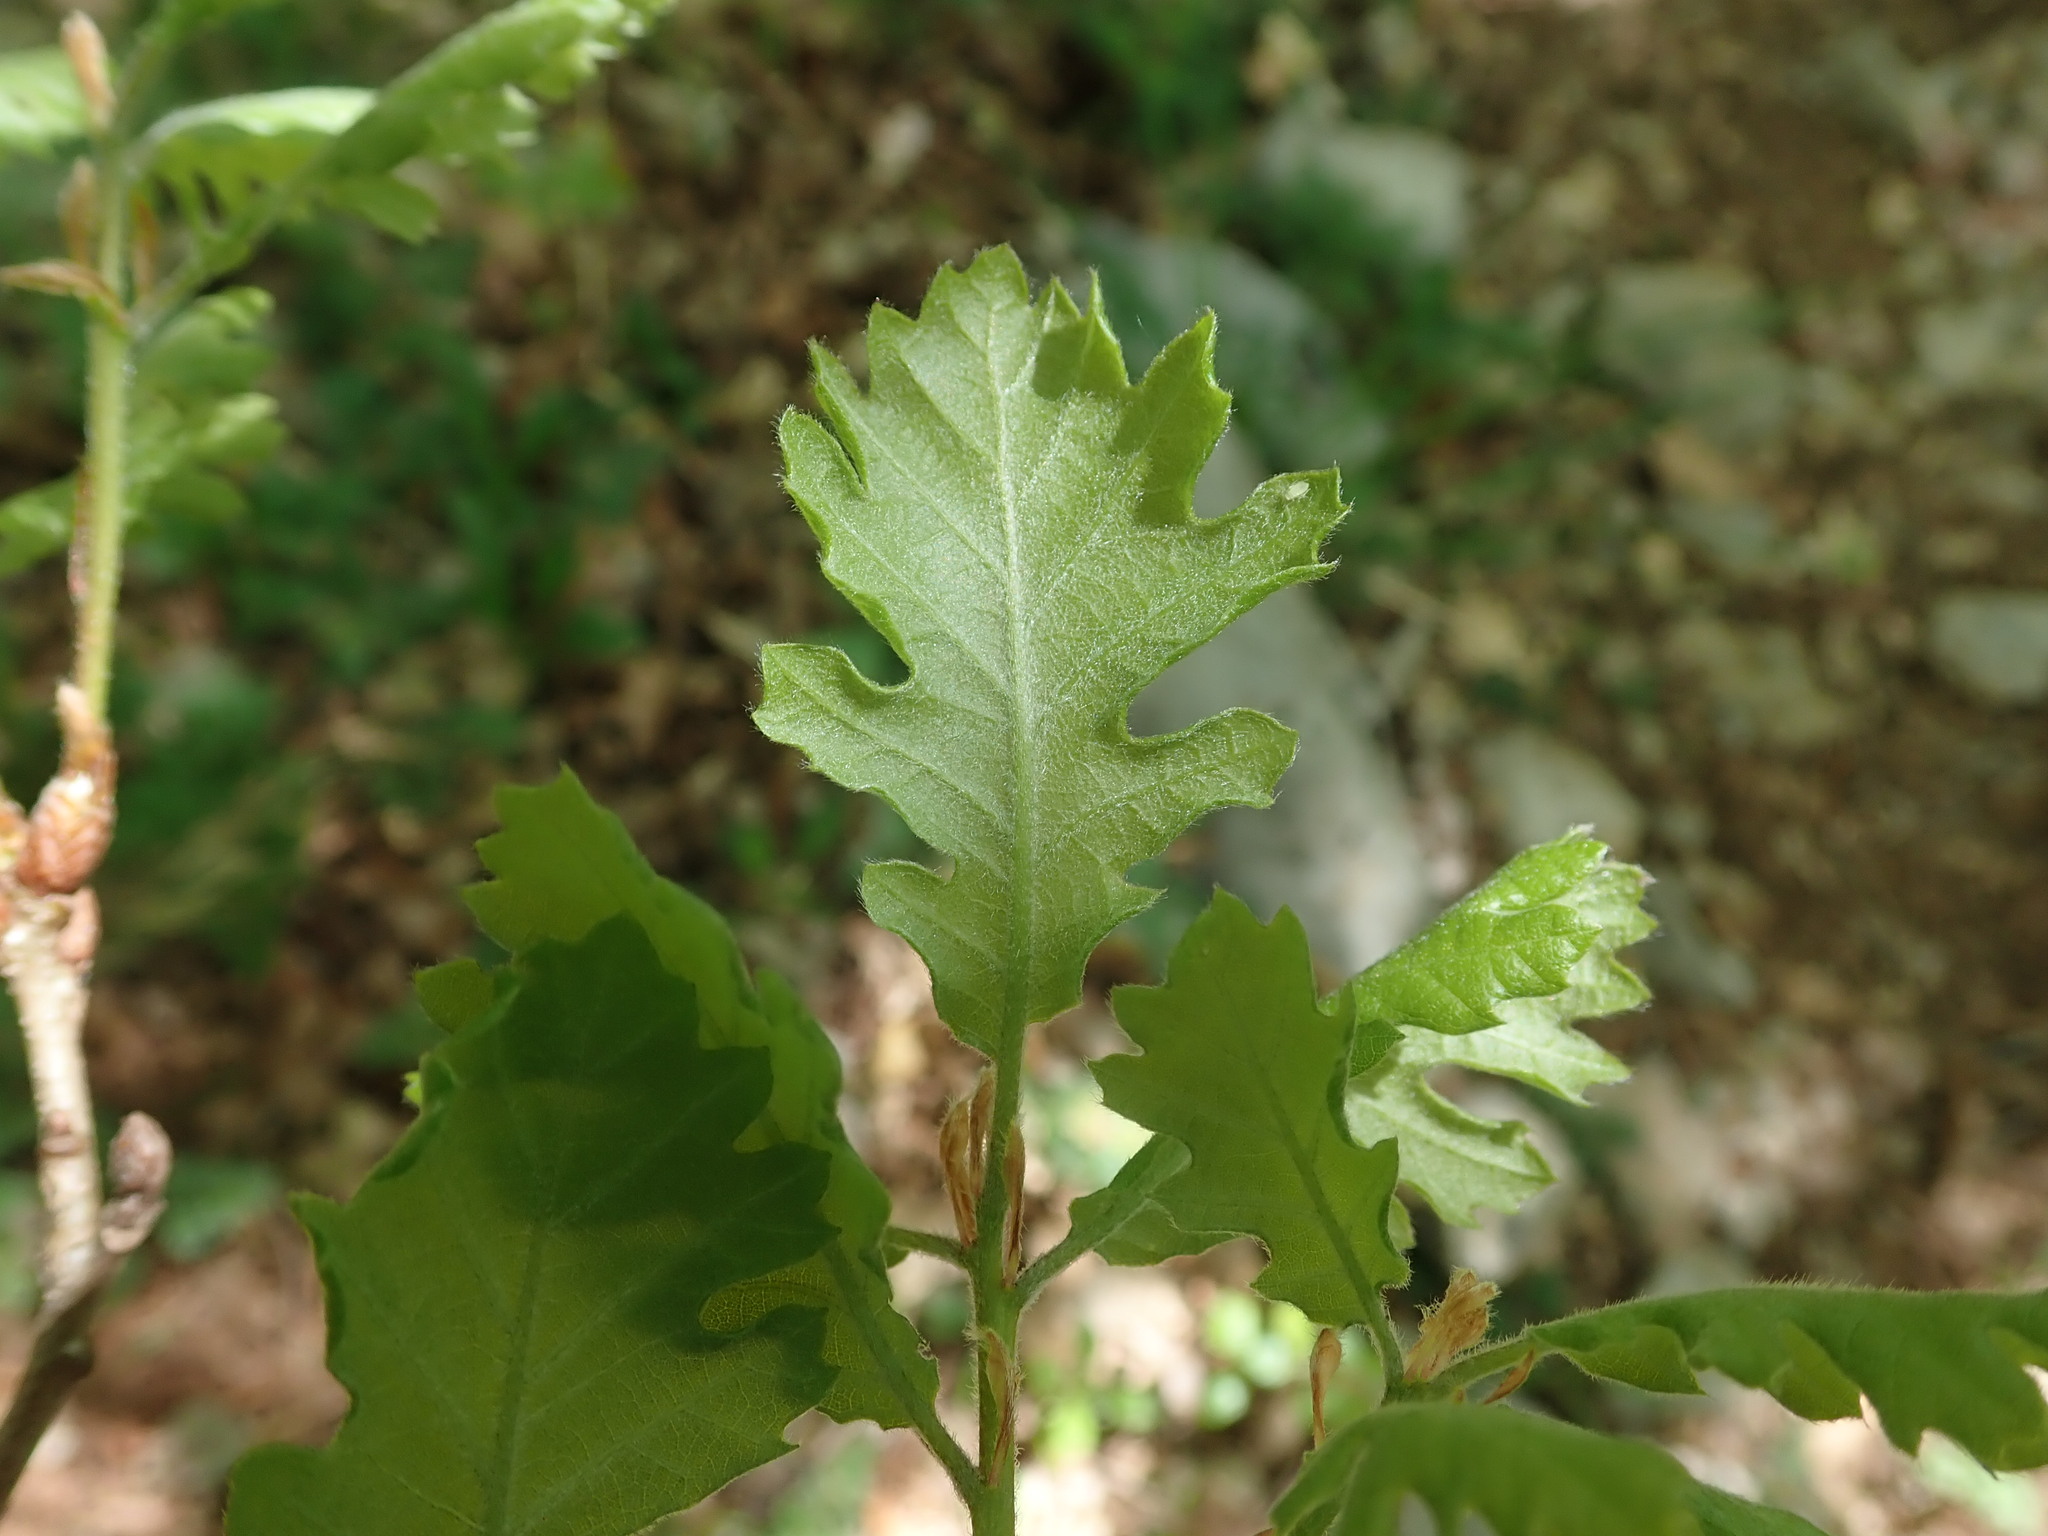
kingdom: Plantae
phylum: Tracheophyta
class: Magnoliopsida
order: Fagales
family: Fagaceae
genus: Quercus
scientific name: Quercus pubescens
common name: Downy oak
